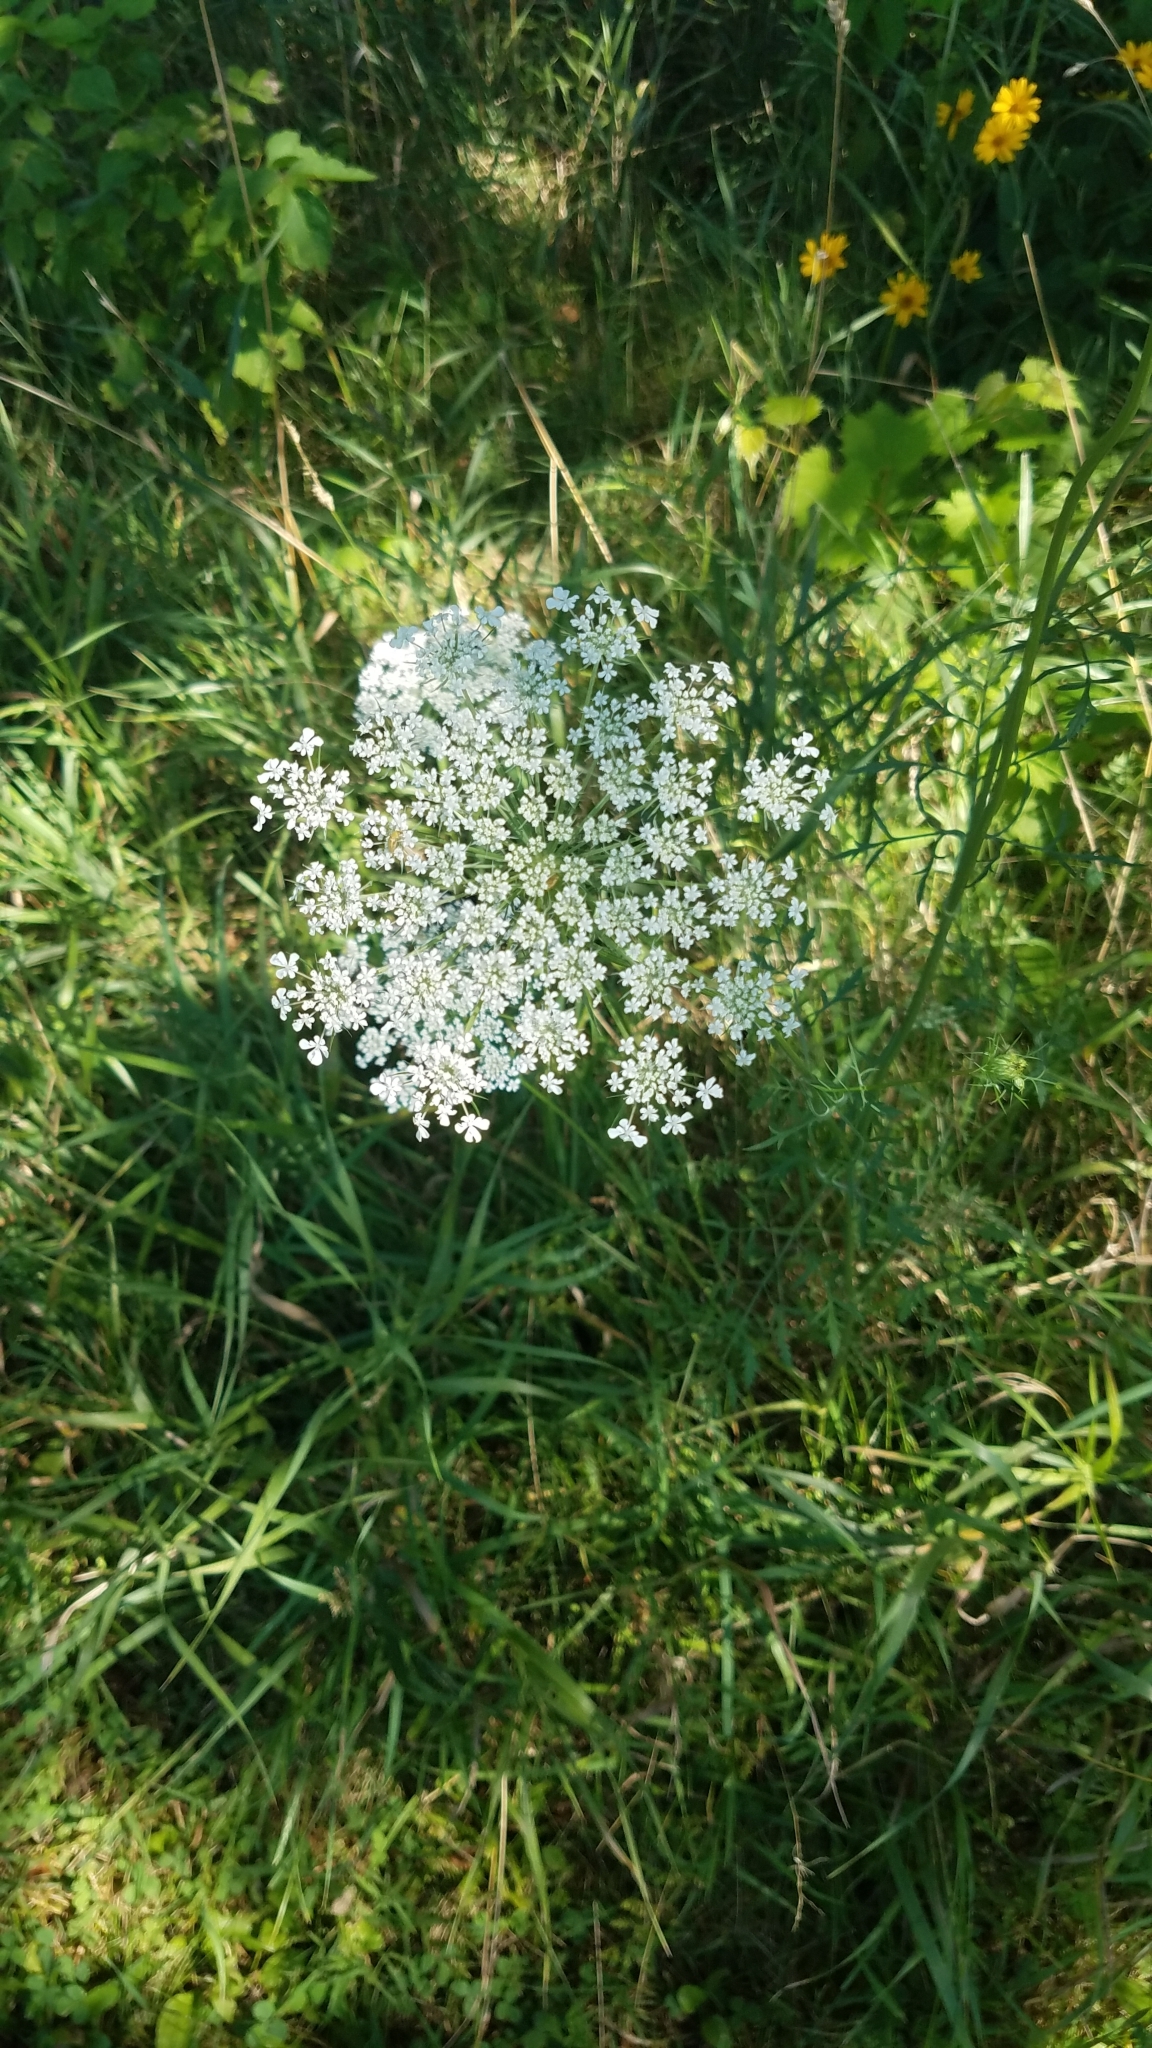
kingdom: Plantae
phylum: Tracheophyta
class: Magnoliopsida
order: Apiales
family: Apiaceae
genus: Daucus
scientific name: Daucus carota
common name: Wild carrot
